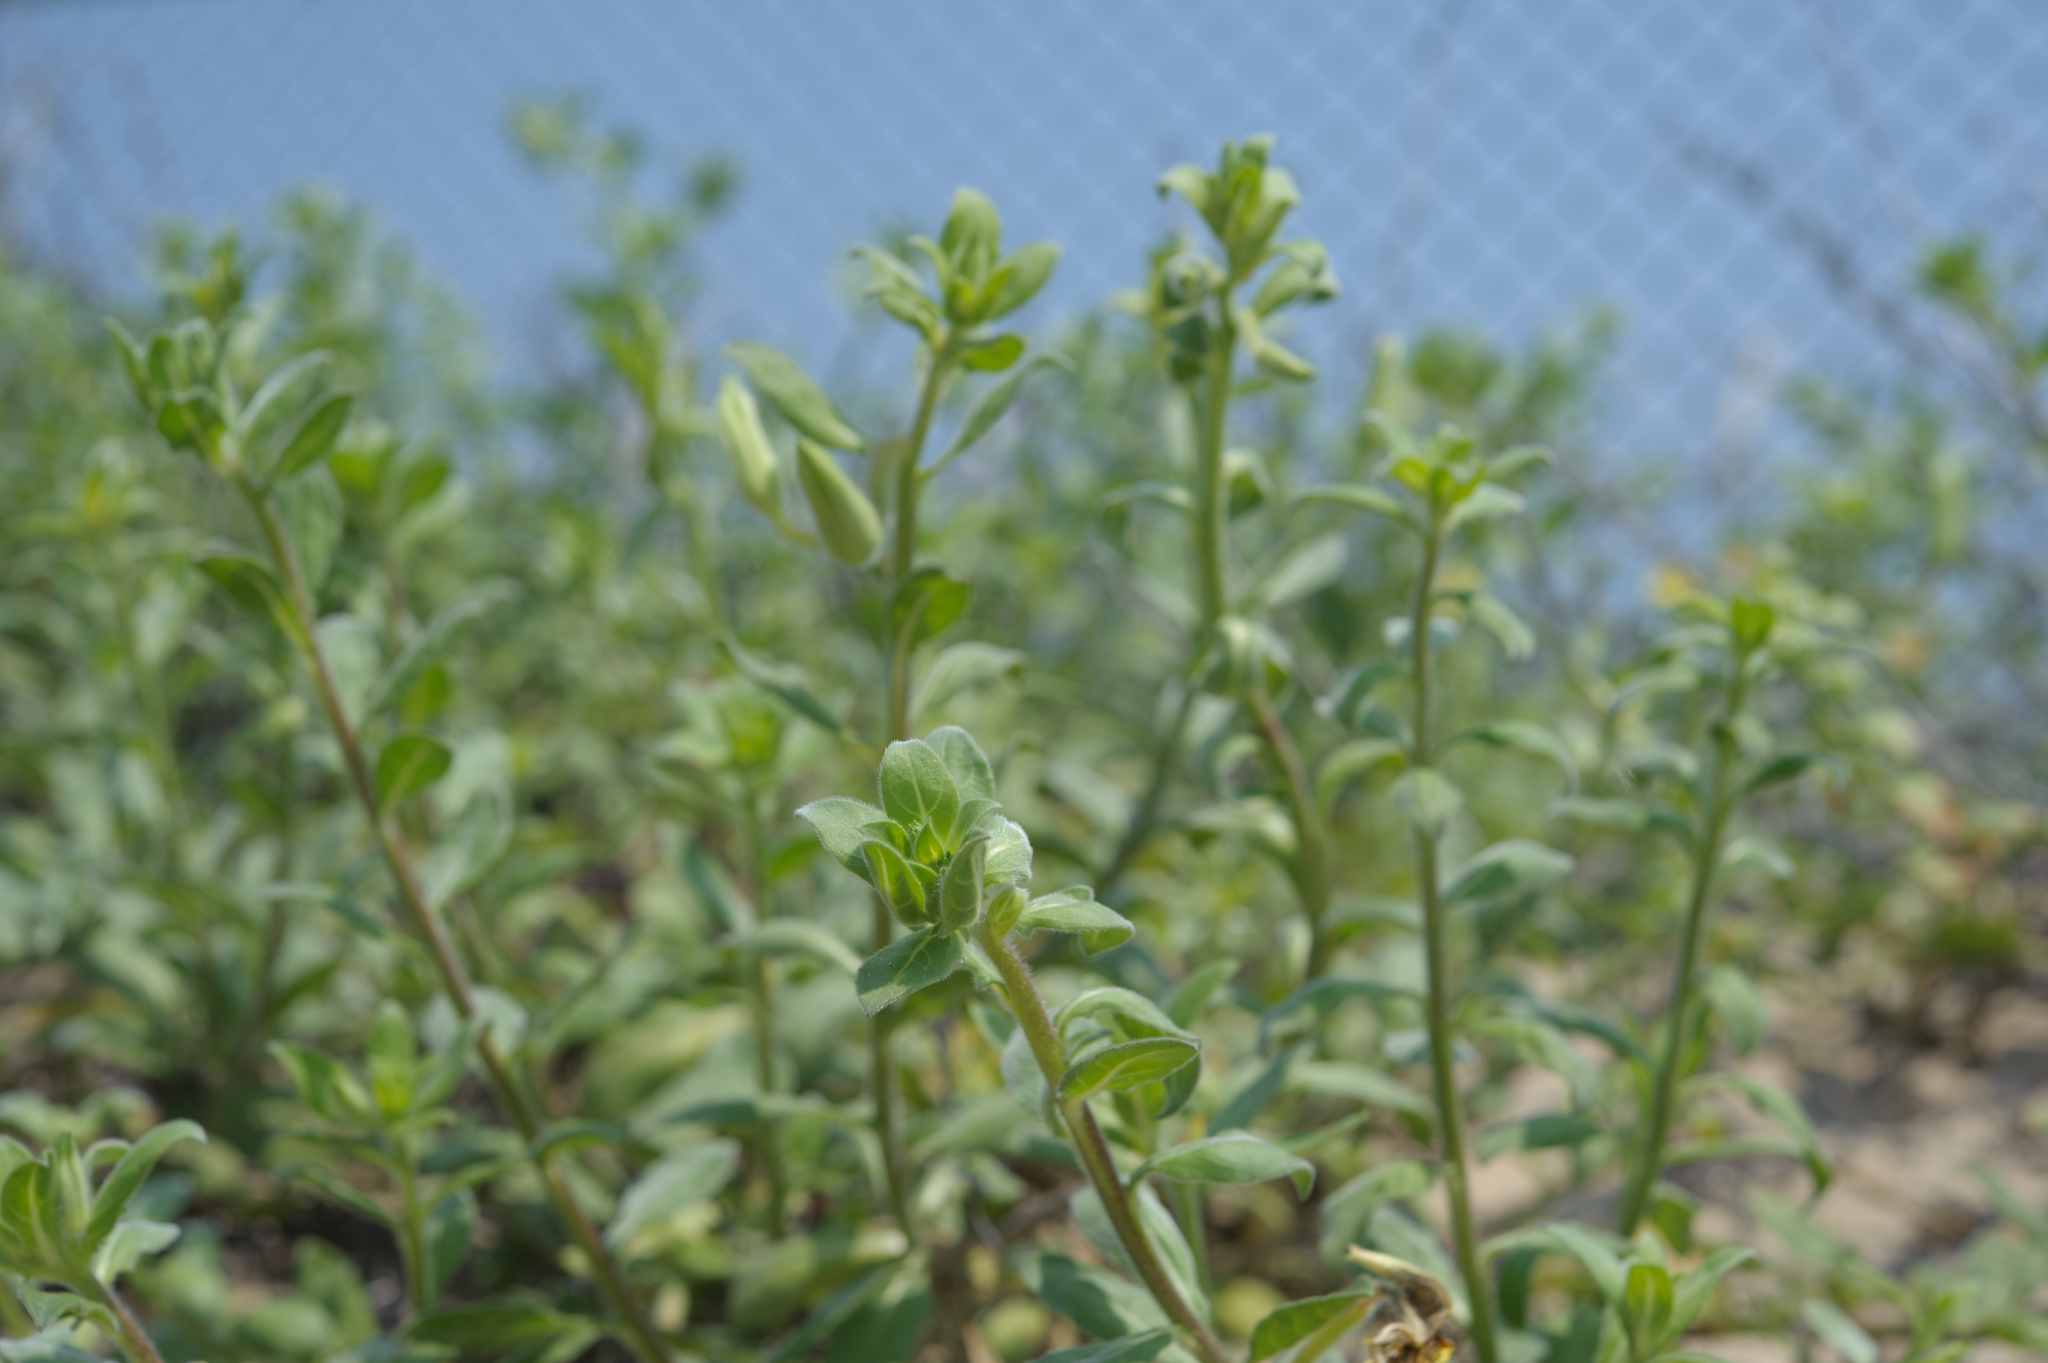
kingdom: Plantae
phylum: Tracheophyta
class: Magnoliopsida
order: Myrtales
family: Onagraceae
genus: Oenothera
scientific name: Oenothera drummondii
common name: Beach evening-primrose
